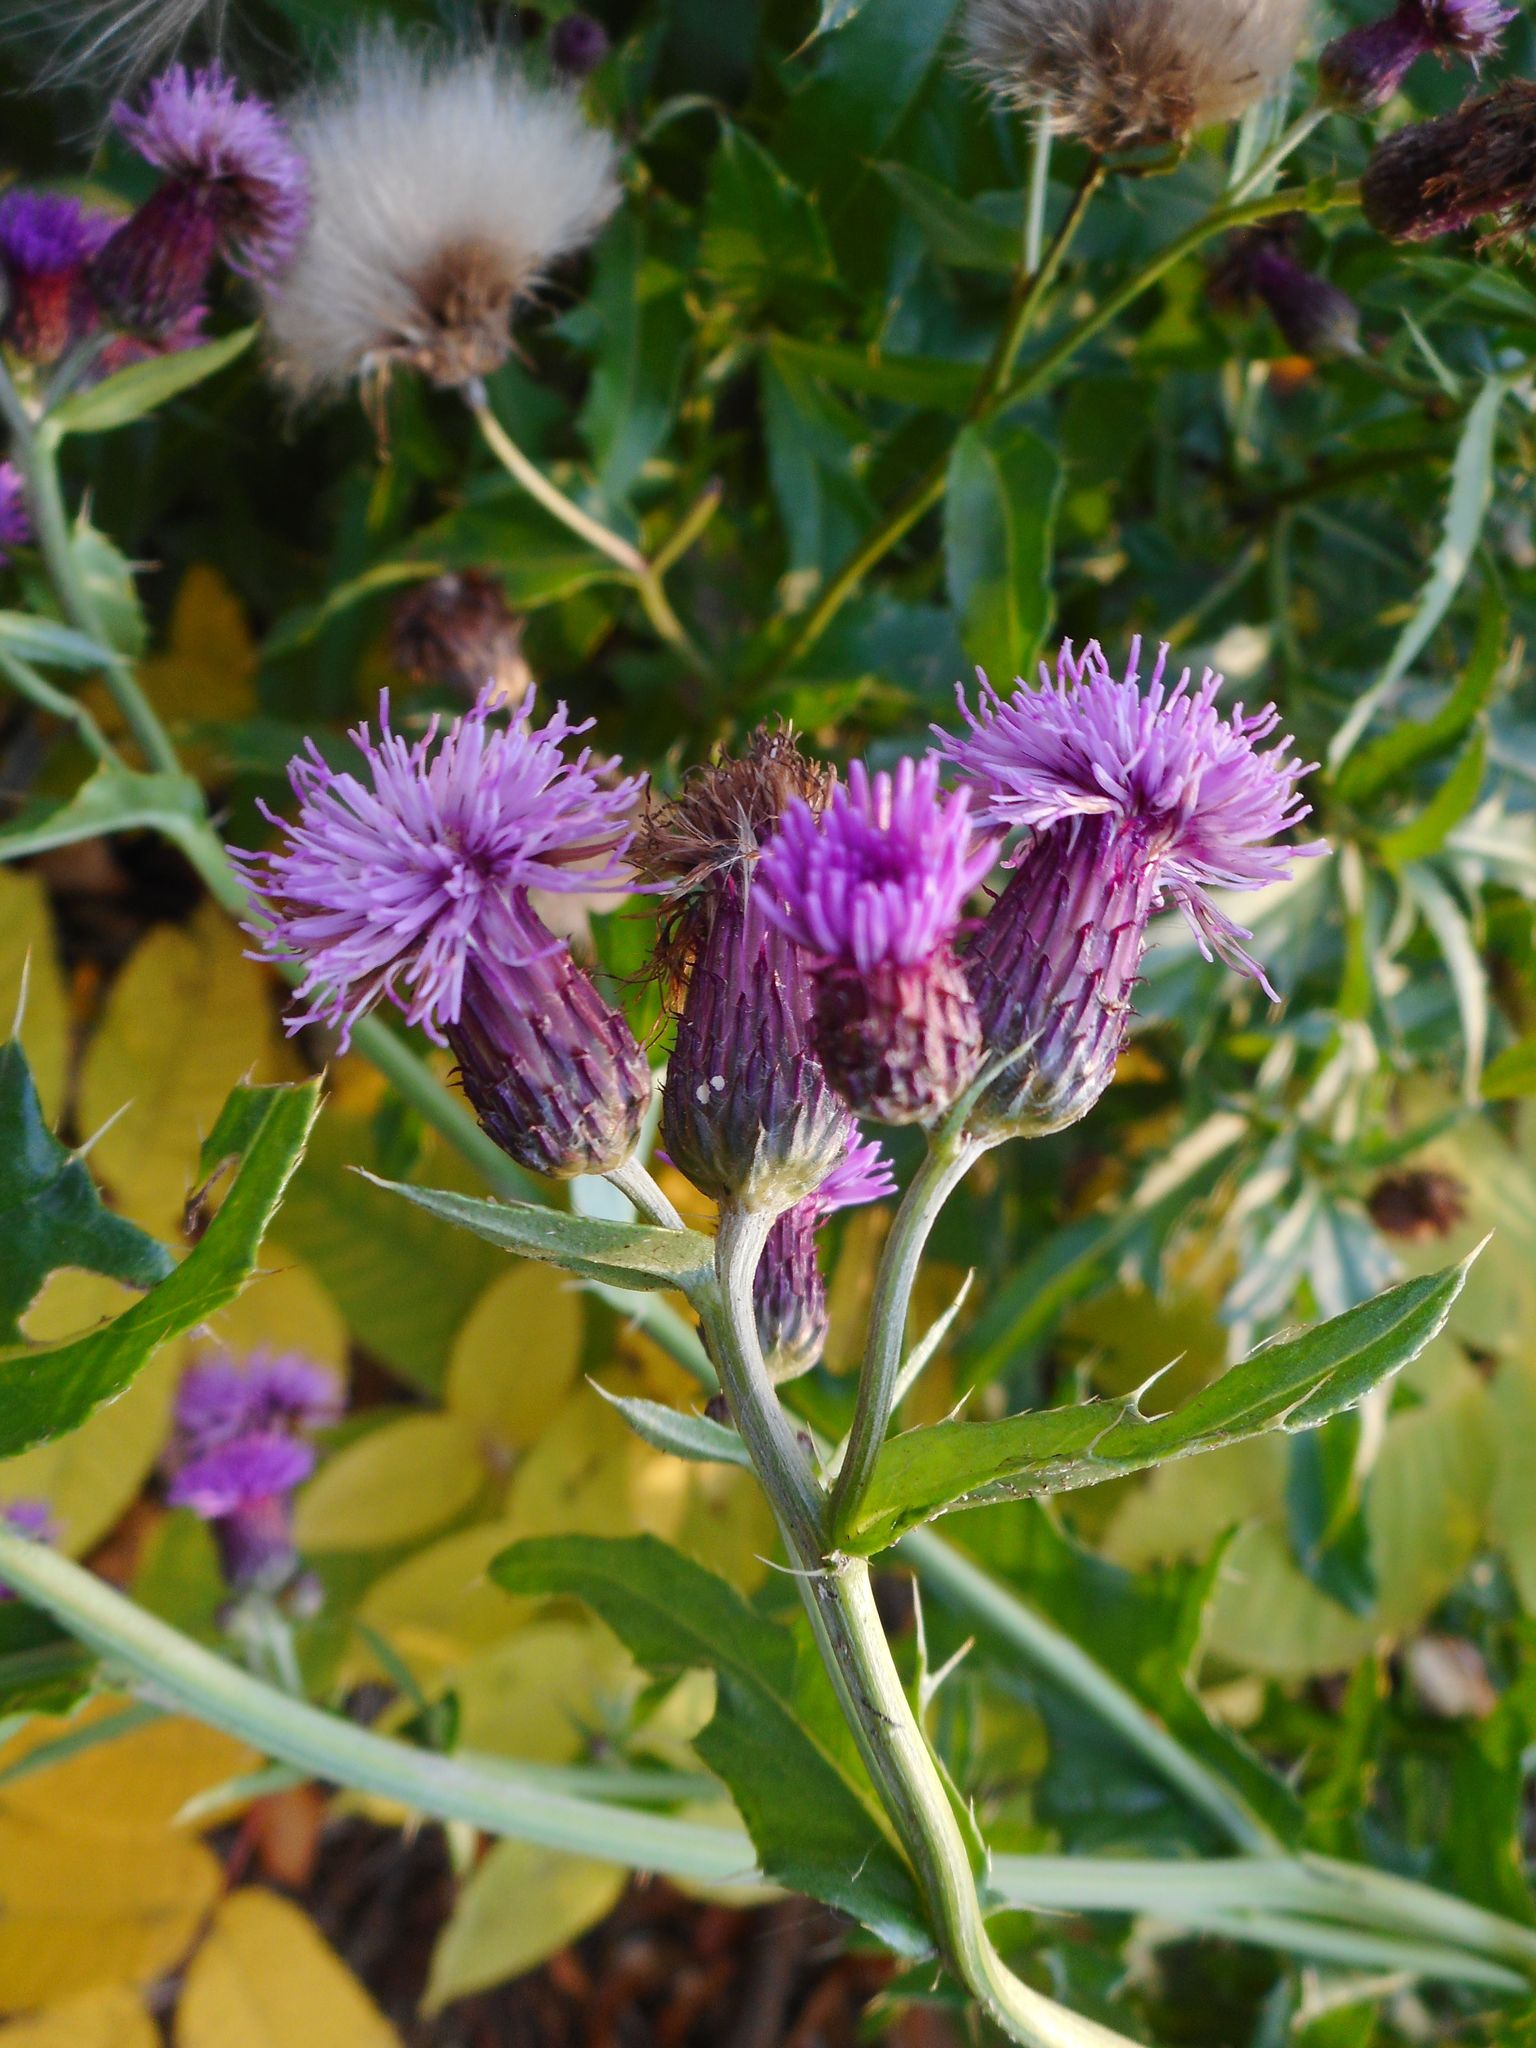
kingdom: Plantae
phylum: Tracheophyta
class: Magnoliopsida
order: Asterales
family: Asteraceae
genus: Cirsium
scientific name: Cirsium arvense
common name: Creeping thistle
